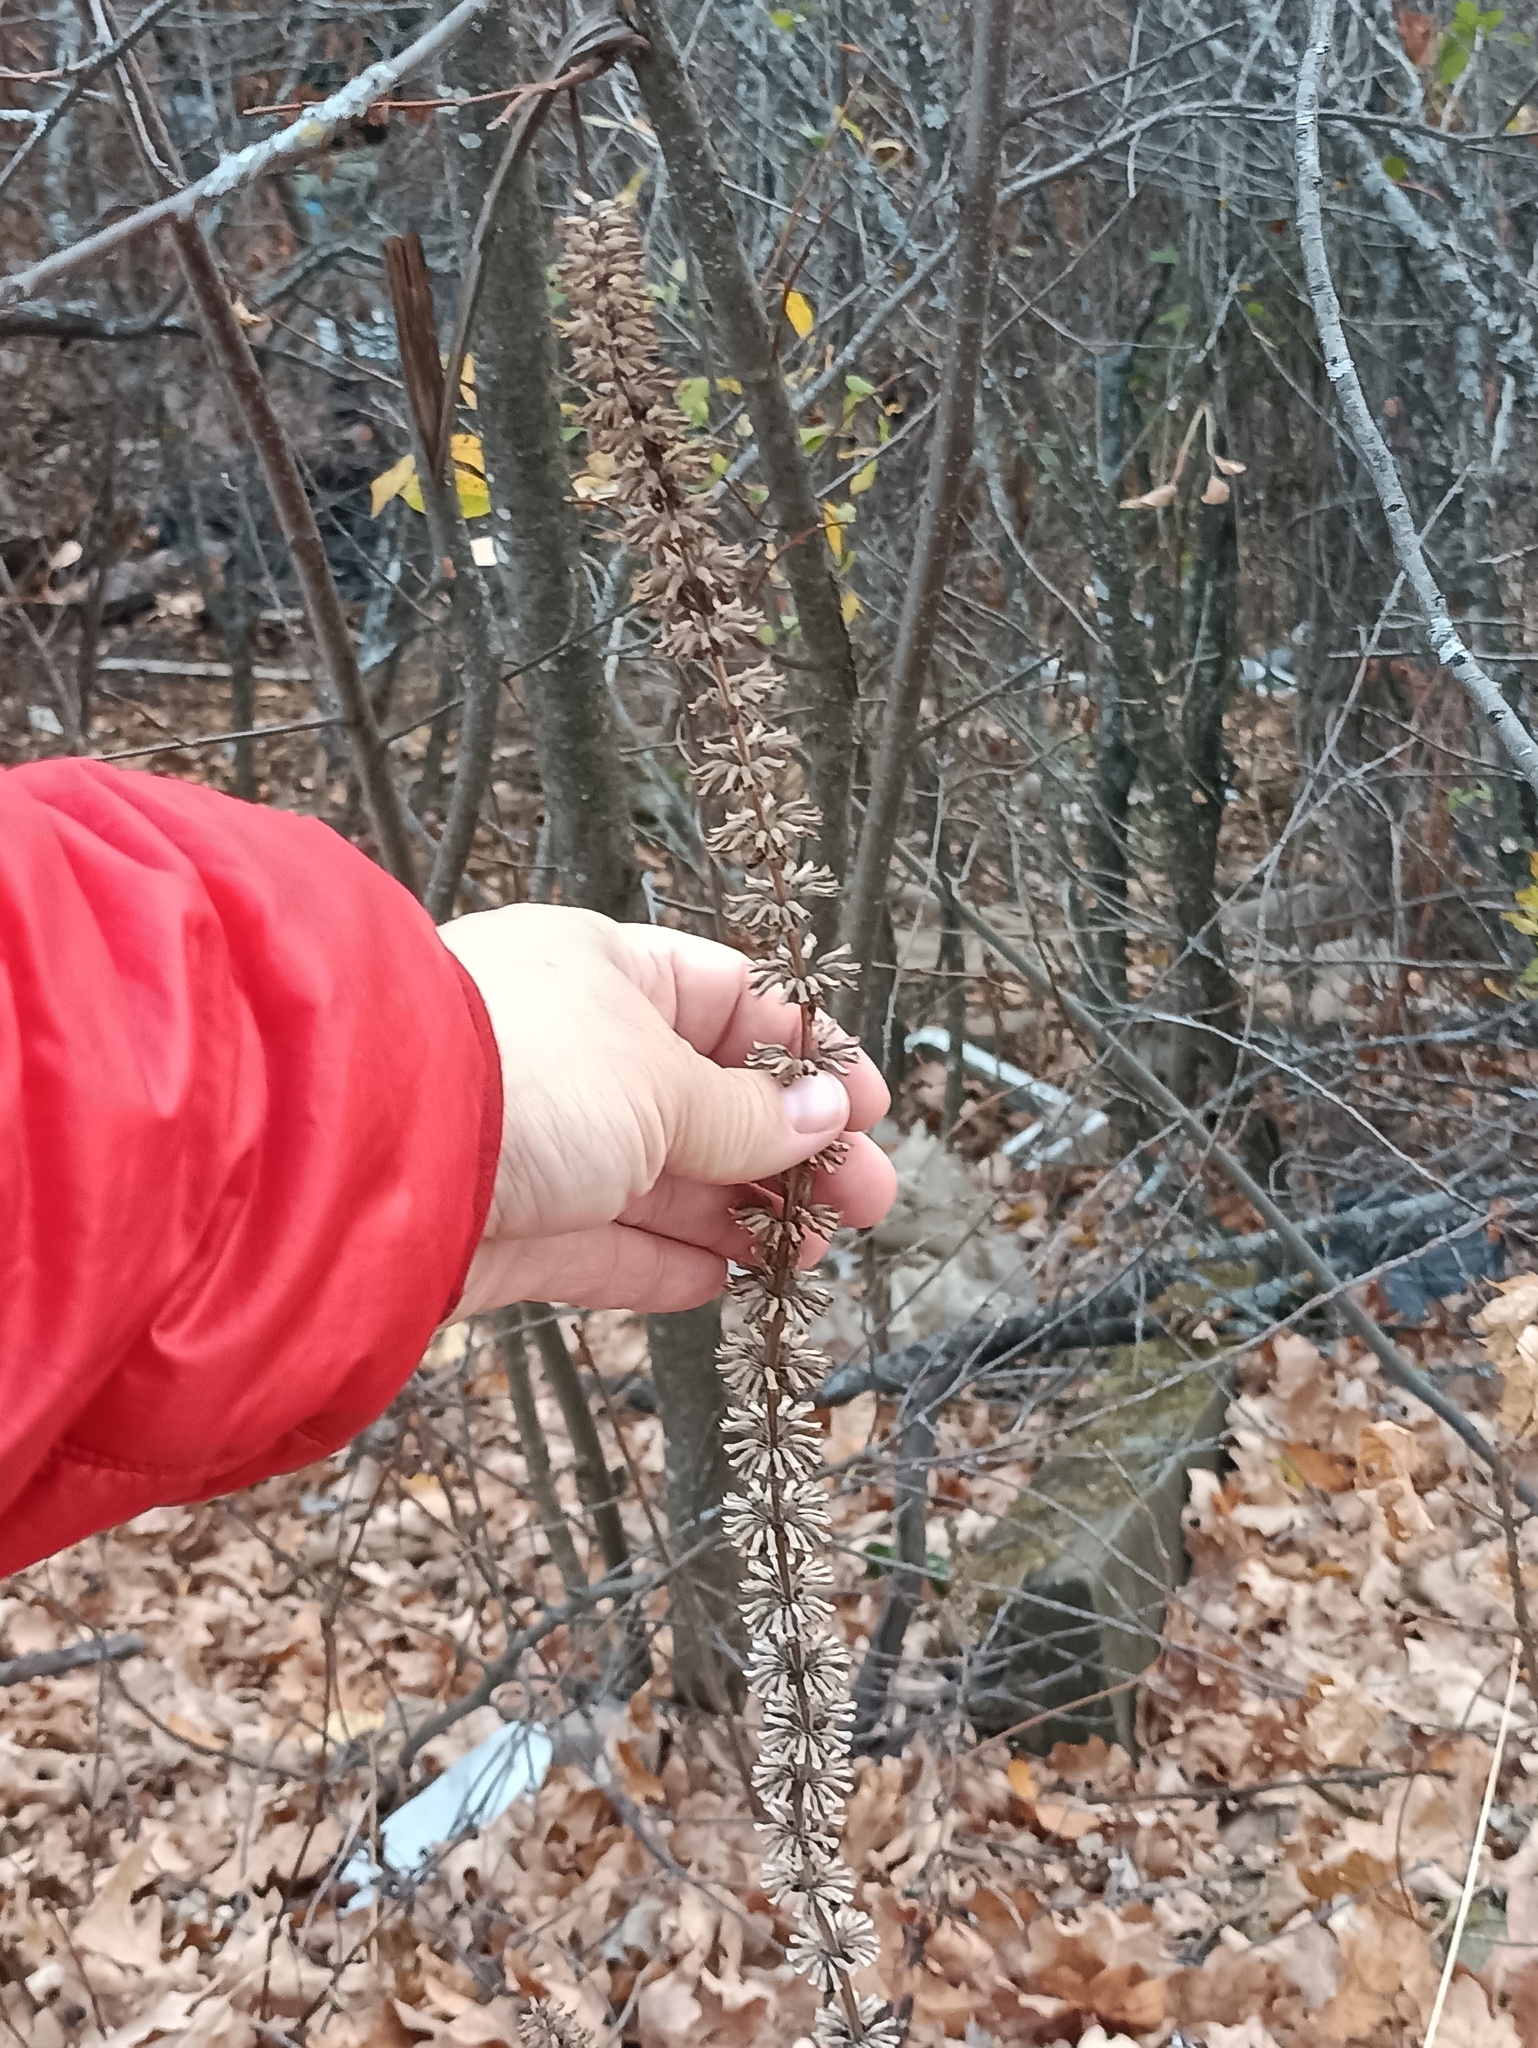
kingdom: Plantae
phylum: Tracheophyta
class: Magnoliopsida
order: Lamiales
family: Lamiaceae
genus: Dracocephalum
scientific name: Dracocephalum thymiflorum
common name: Thymeleaf dragonhead
